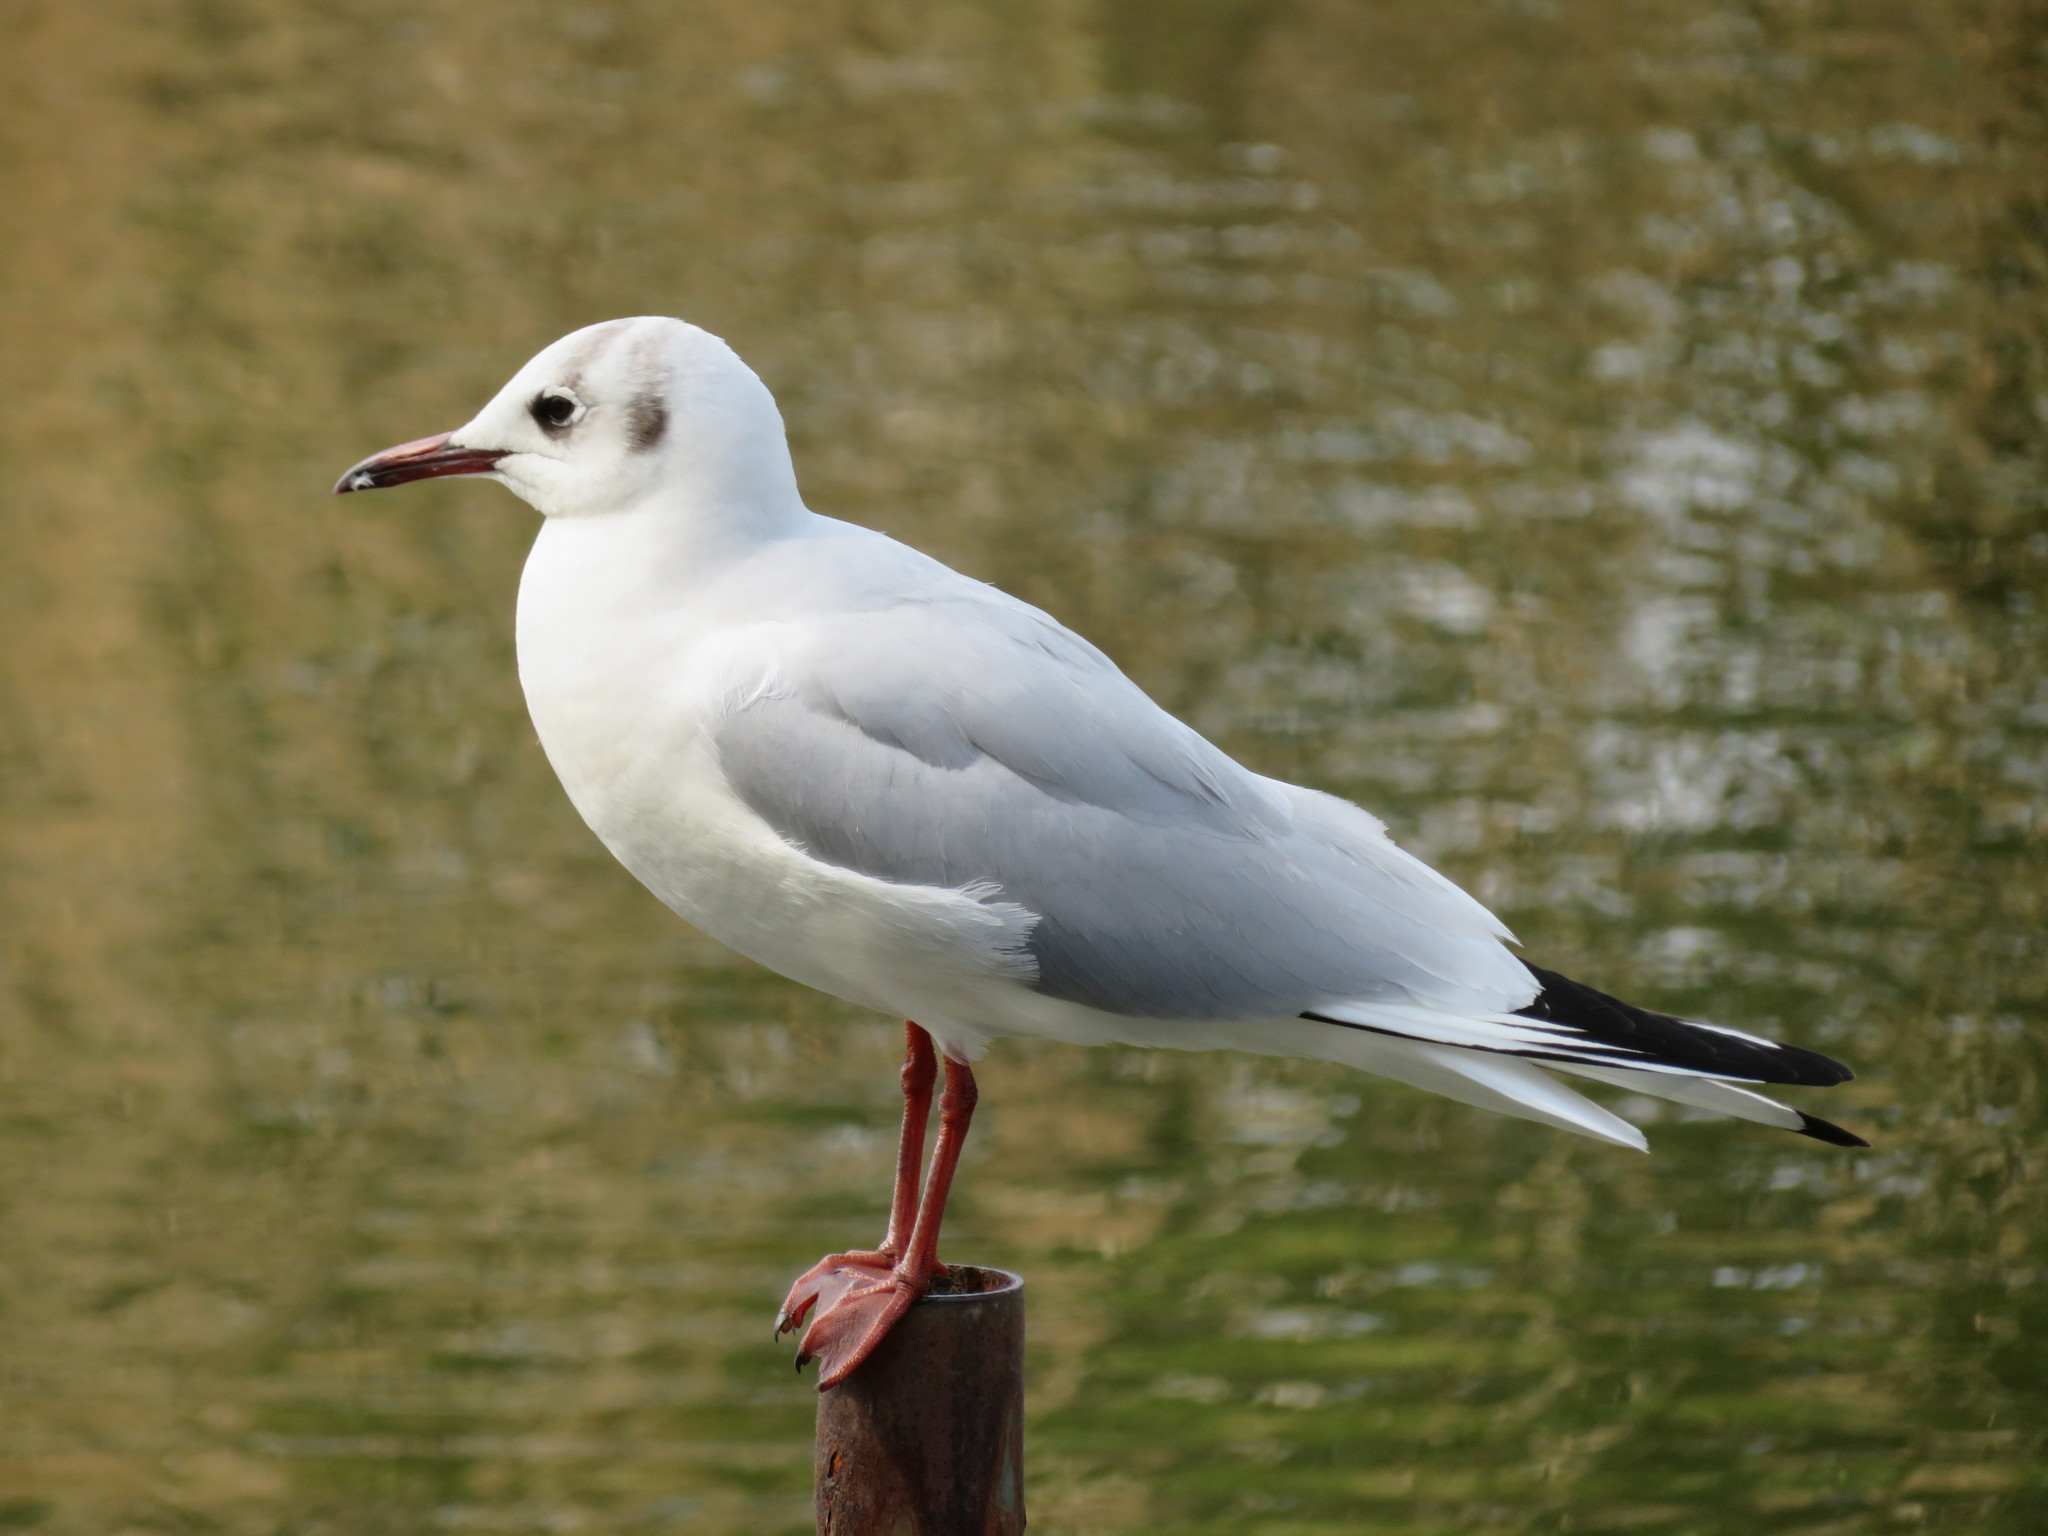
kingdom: Animalia
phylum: Chordata
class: Aves
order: Charadriiformes
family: Laridae
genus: Chroicocephalus
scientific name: Chroicocephalus ridibundus
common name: Black-headed gull
